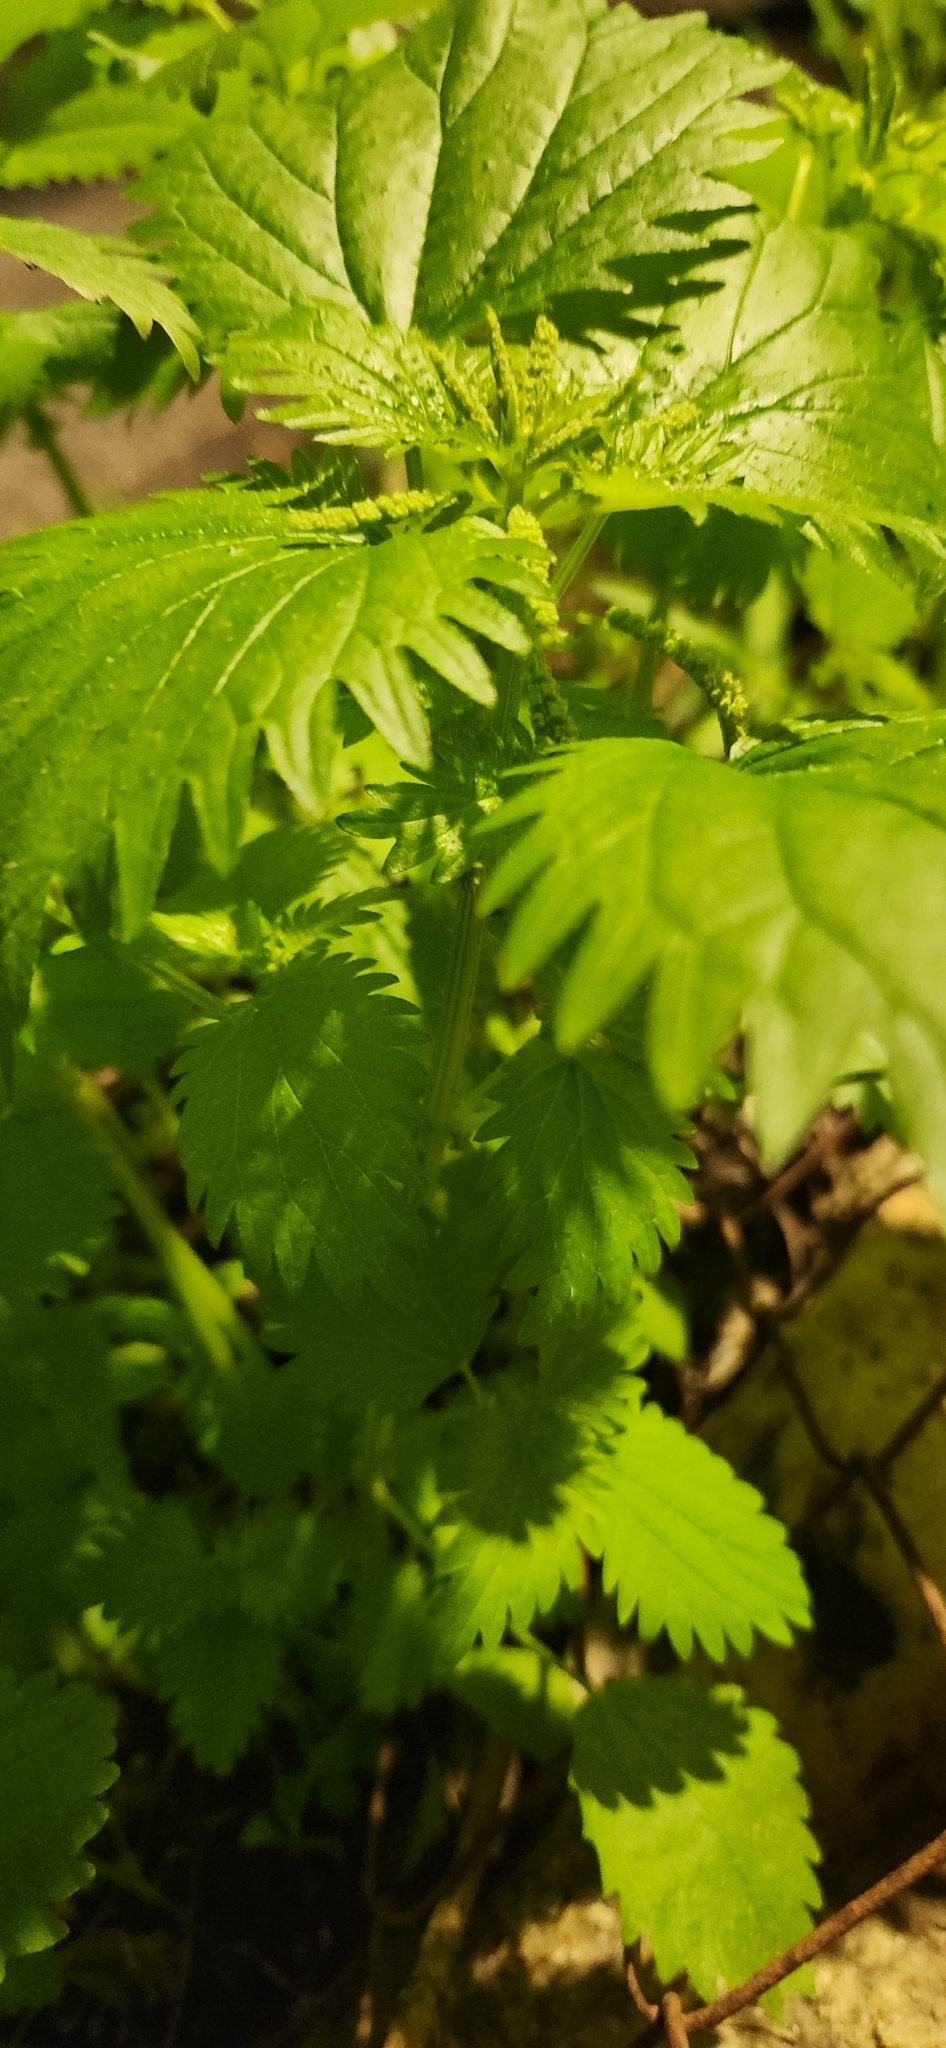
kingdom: Plantae
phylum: Tracheophyta
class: Magnoliopsida
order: Rosales
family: Urticaceae
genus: Urtica
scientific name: Urtica urens
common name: Dwarf nettle
